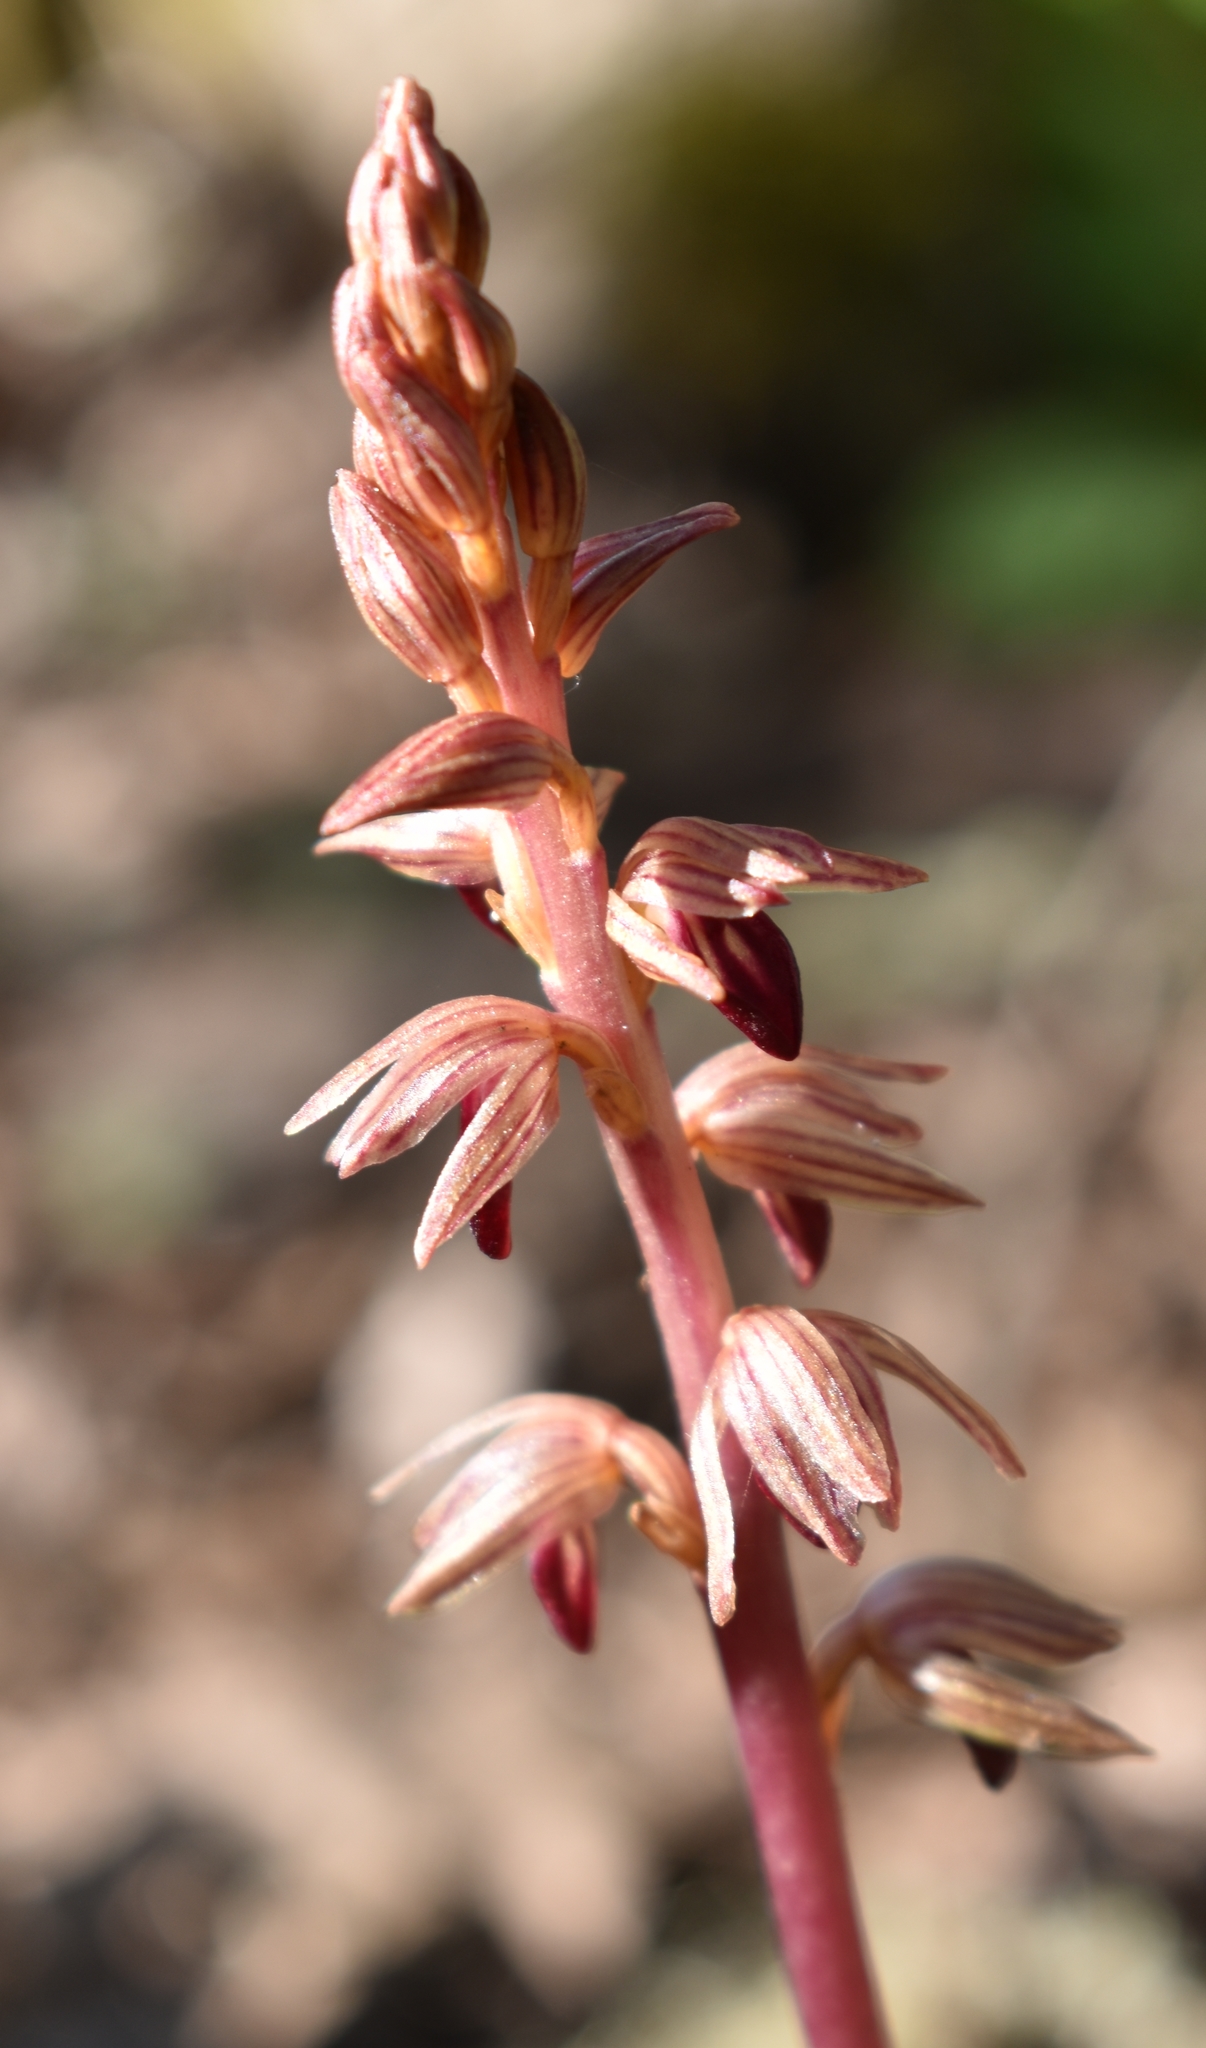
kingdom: Plantae
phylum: Tracheophyta
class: Liliopsida
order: Asparagales
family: Orchidaceae
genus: Corallorhiza
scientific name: Corallorhiza striata
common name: Hooded coralroot
